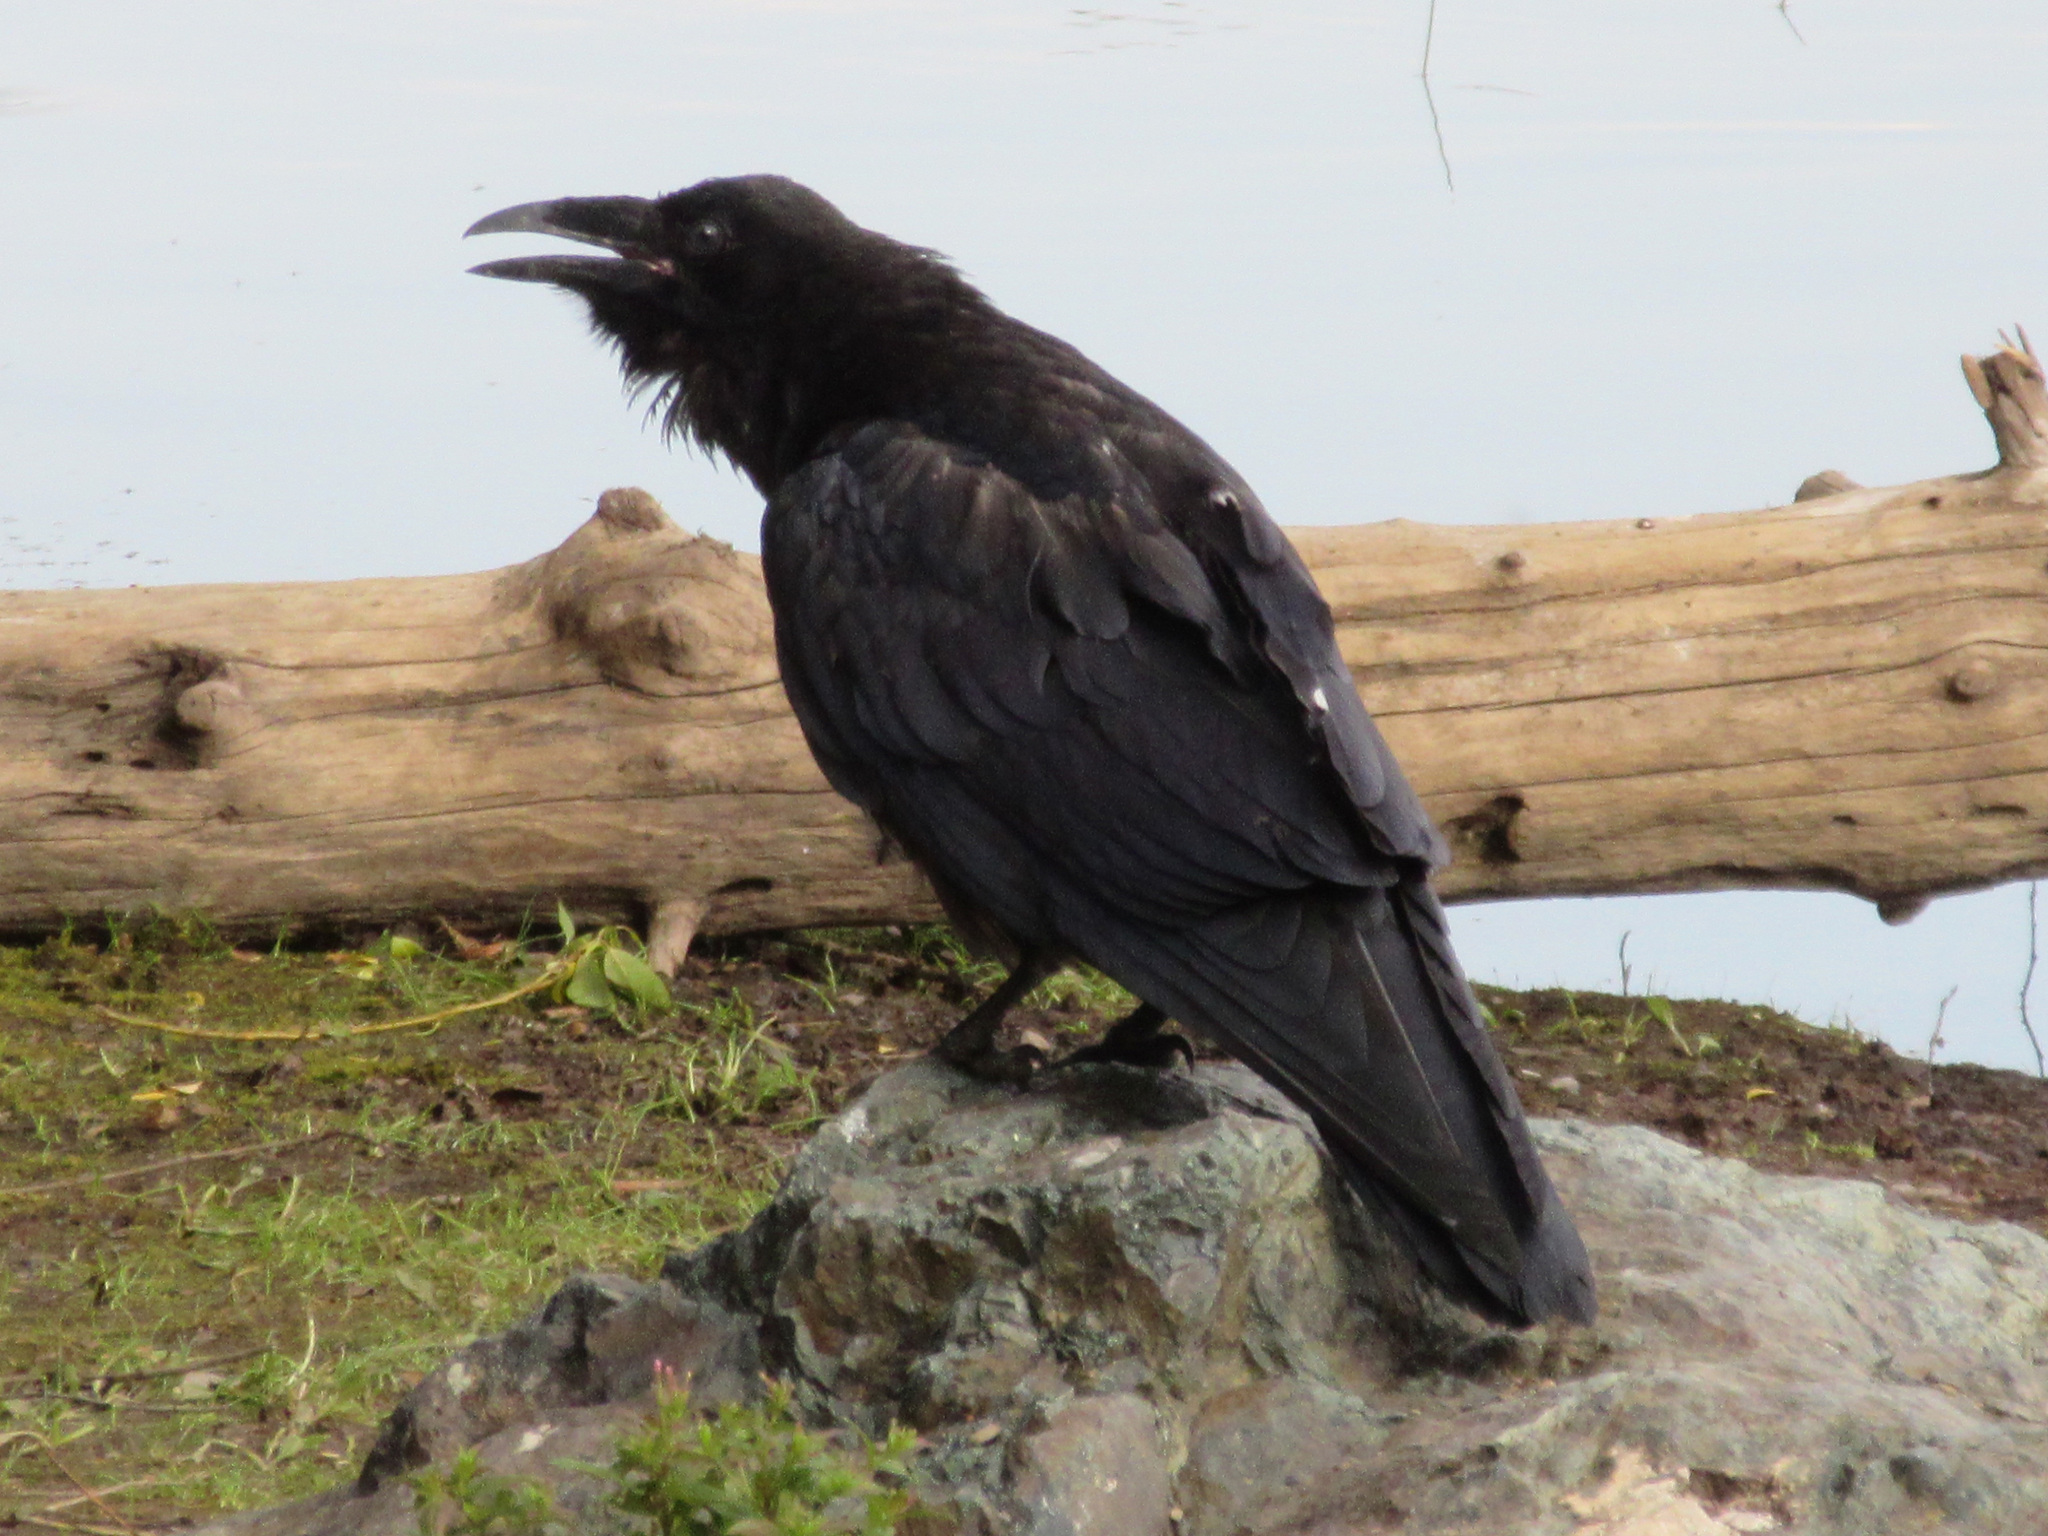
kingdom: Animalia
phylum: Chordata
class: Aves
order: Passeriformes
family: Corvidae
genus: Corvus
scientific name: Corvus corax
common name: Common raven
